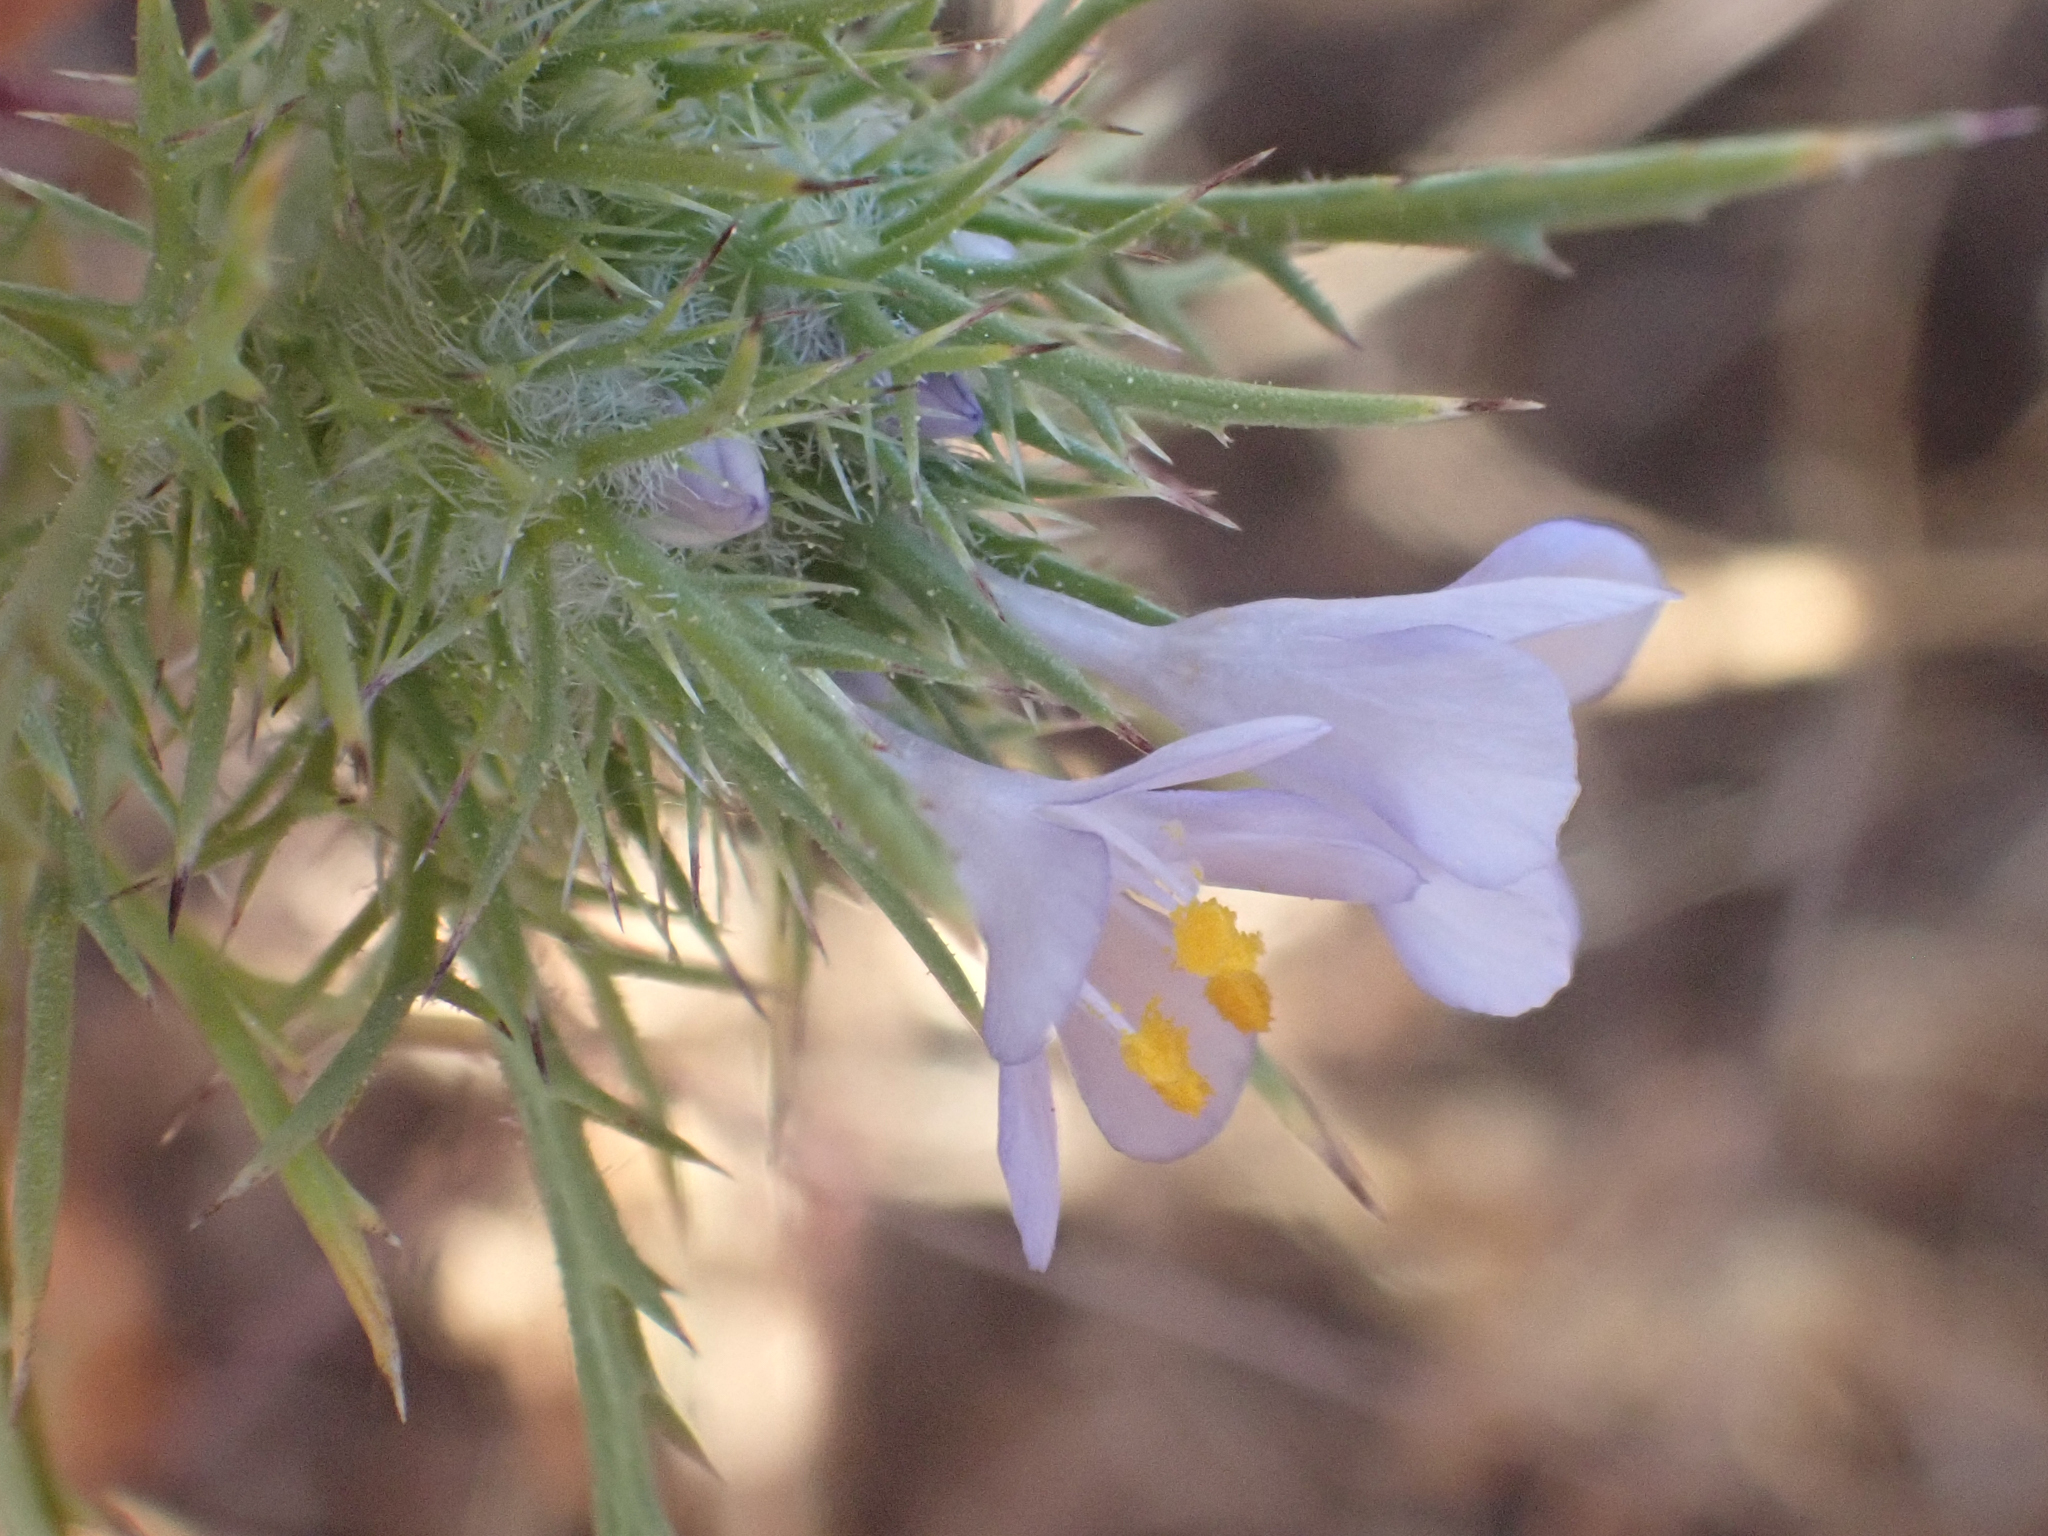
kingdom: Plantae
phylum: Tracheophyta
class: Magnoliopsida
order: Ericales
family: Polemoniaceae
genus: Navarretia
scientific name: Navarretia tagetina
